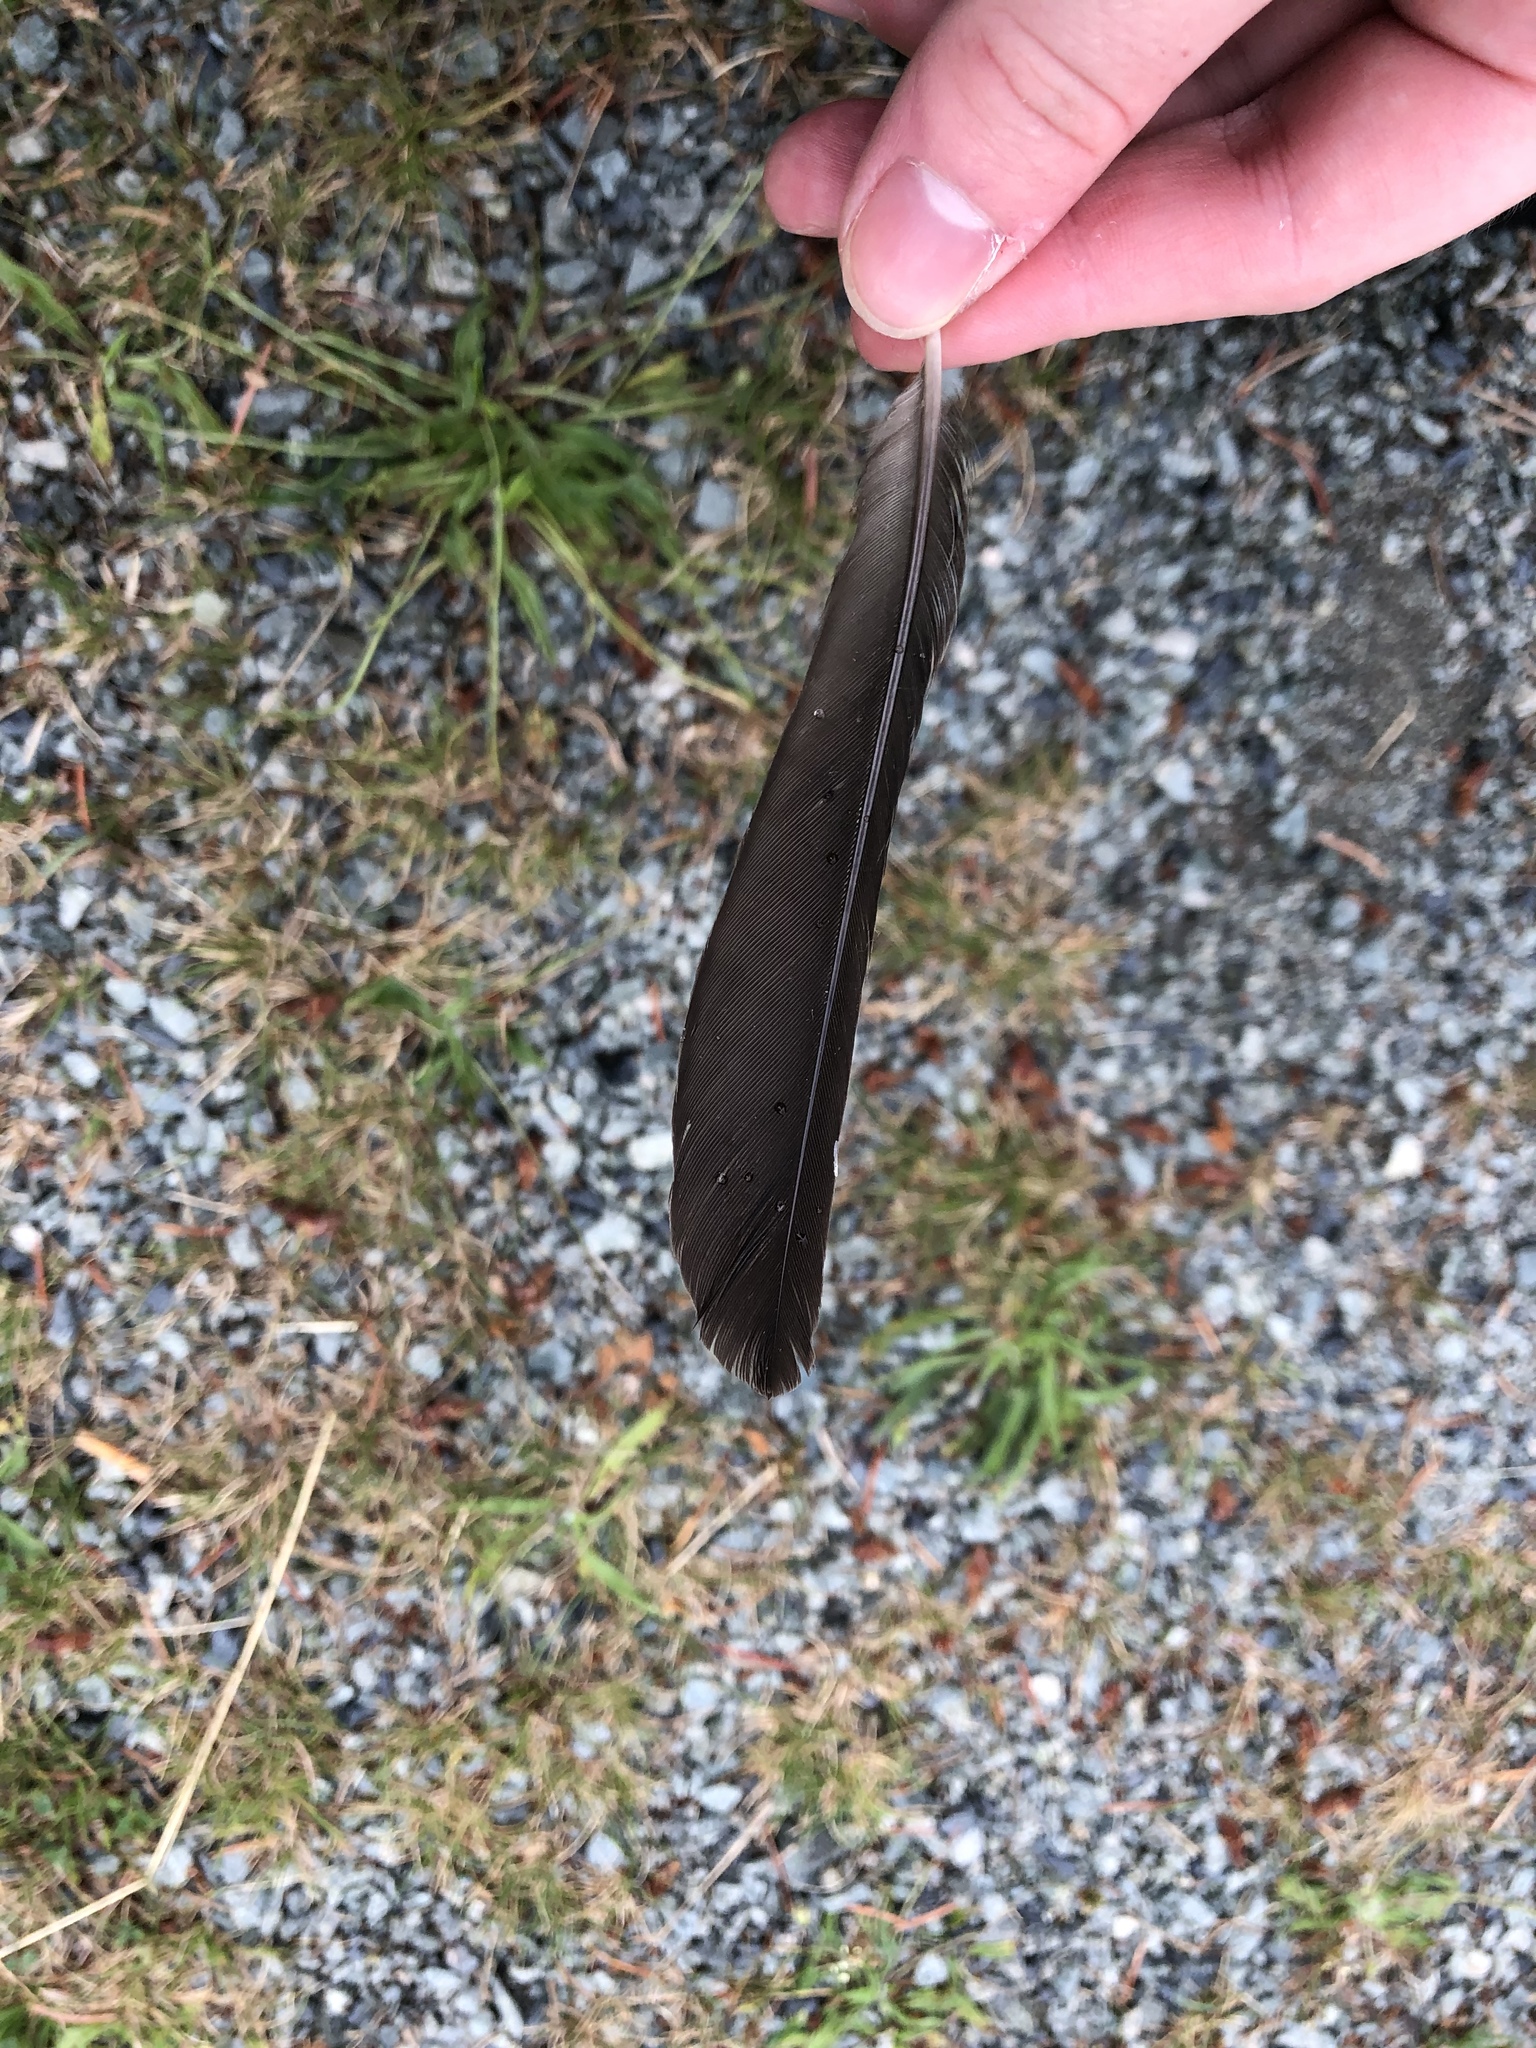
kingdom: Animalia
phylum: Chordata
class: Aves
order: Passeriformes
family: Turdidae
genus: Turdus
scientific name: Turdus migratorius
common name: American robin
